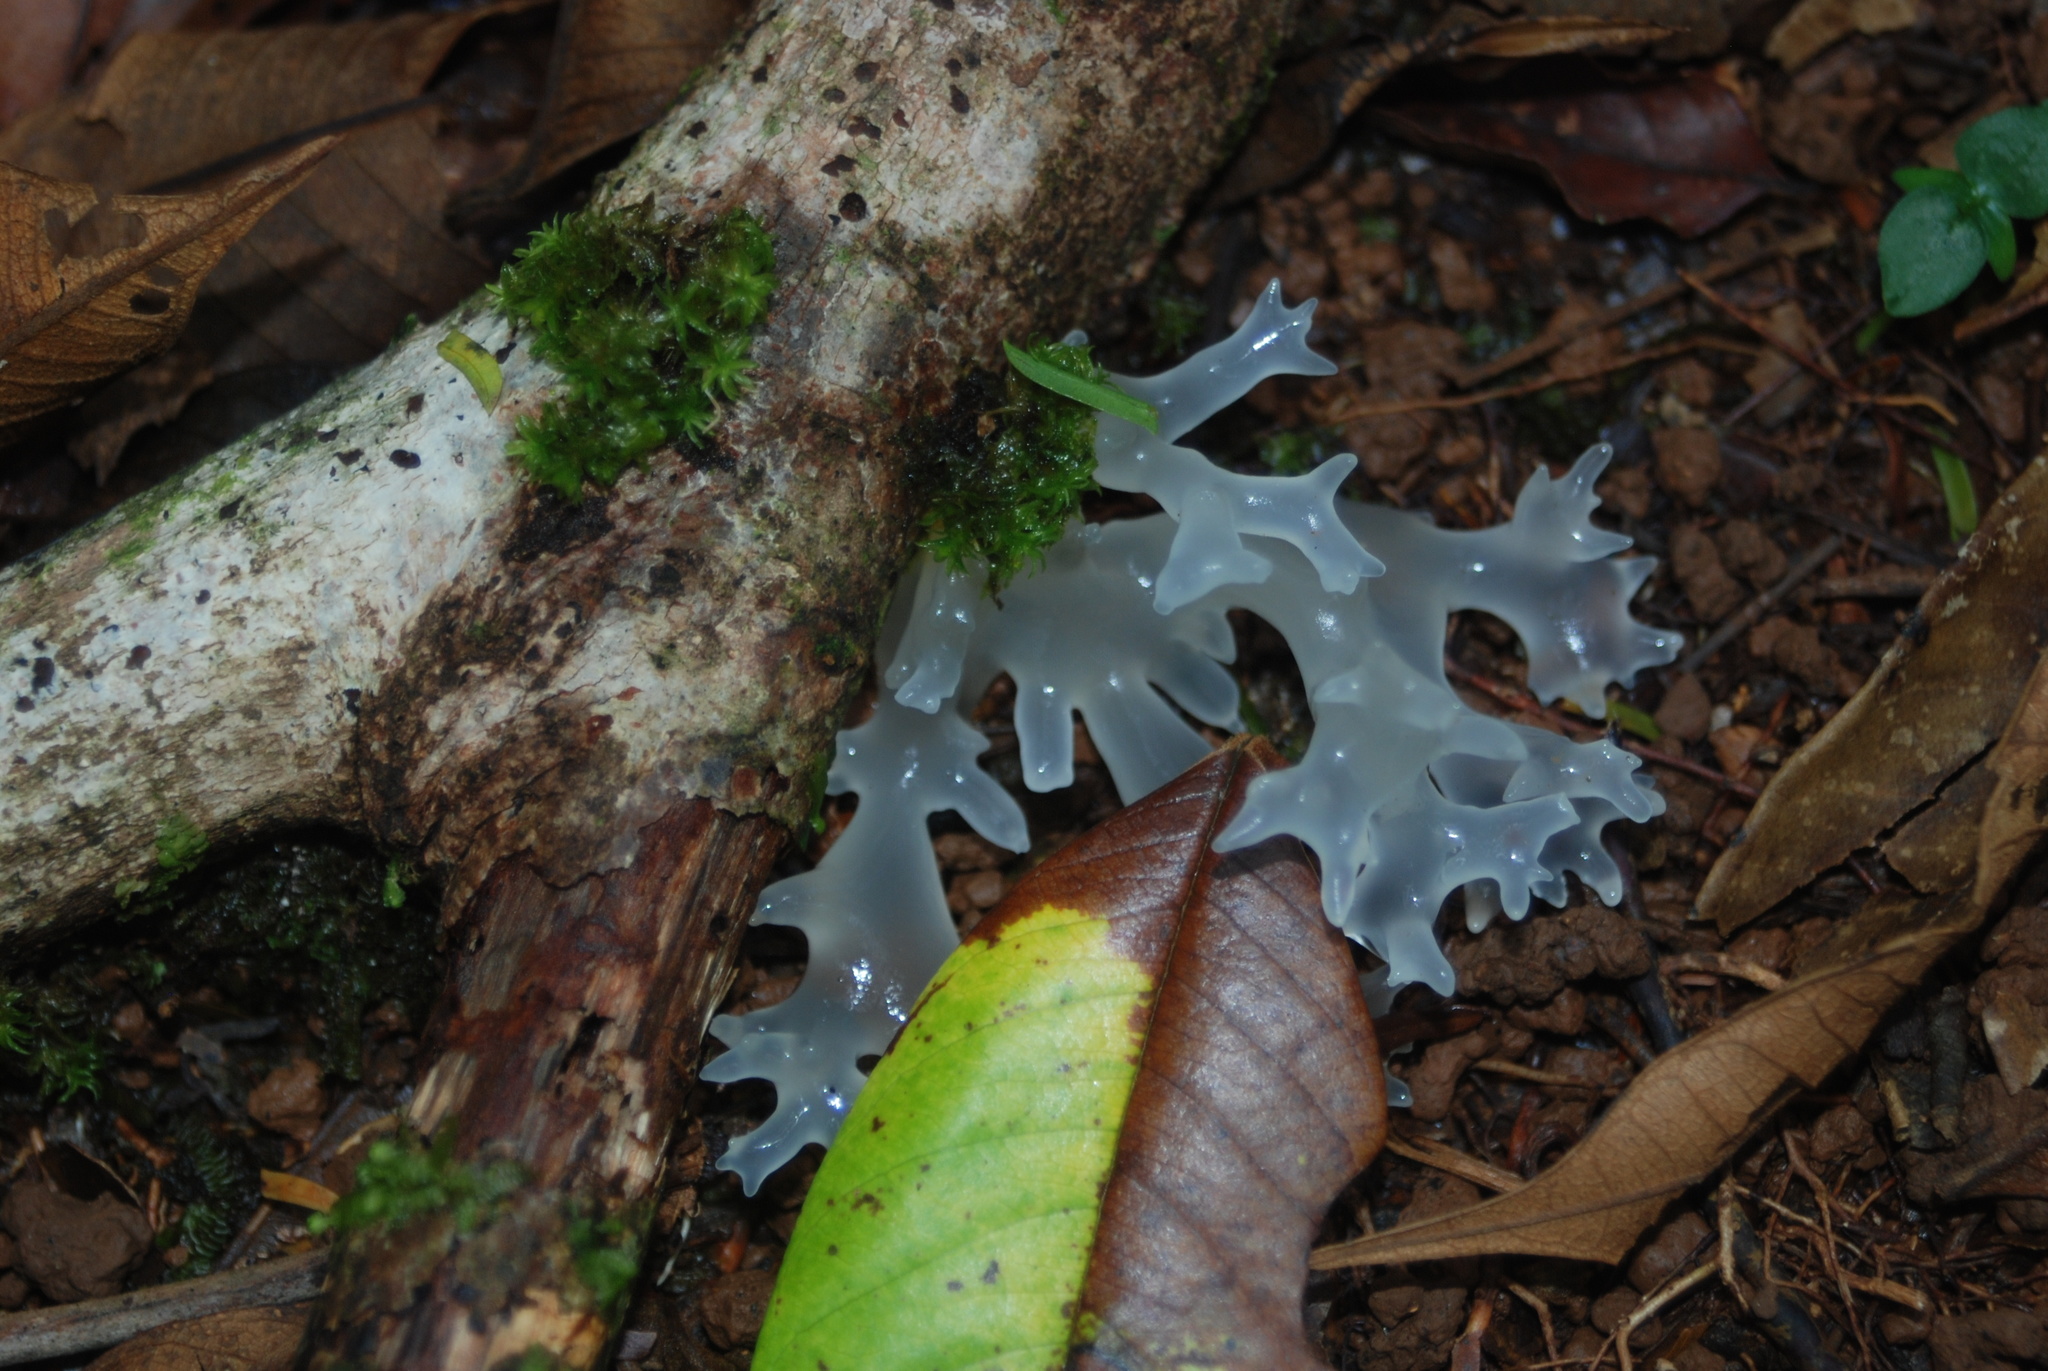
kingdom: Fungi
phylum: Basidiomycota
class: Tremellomycetes
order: Tremellales
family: Tremellaceae
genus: Tremella
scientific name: Tremella fuciformis
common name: Snow fungus
